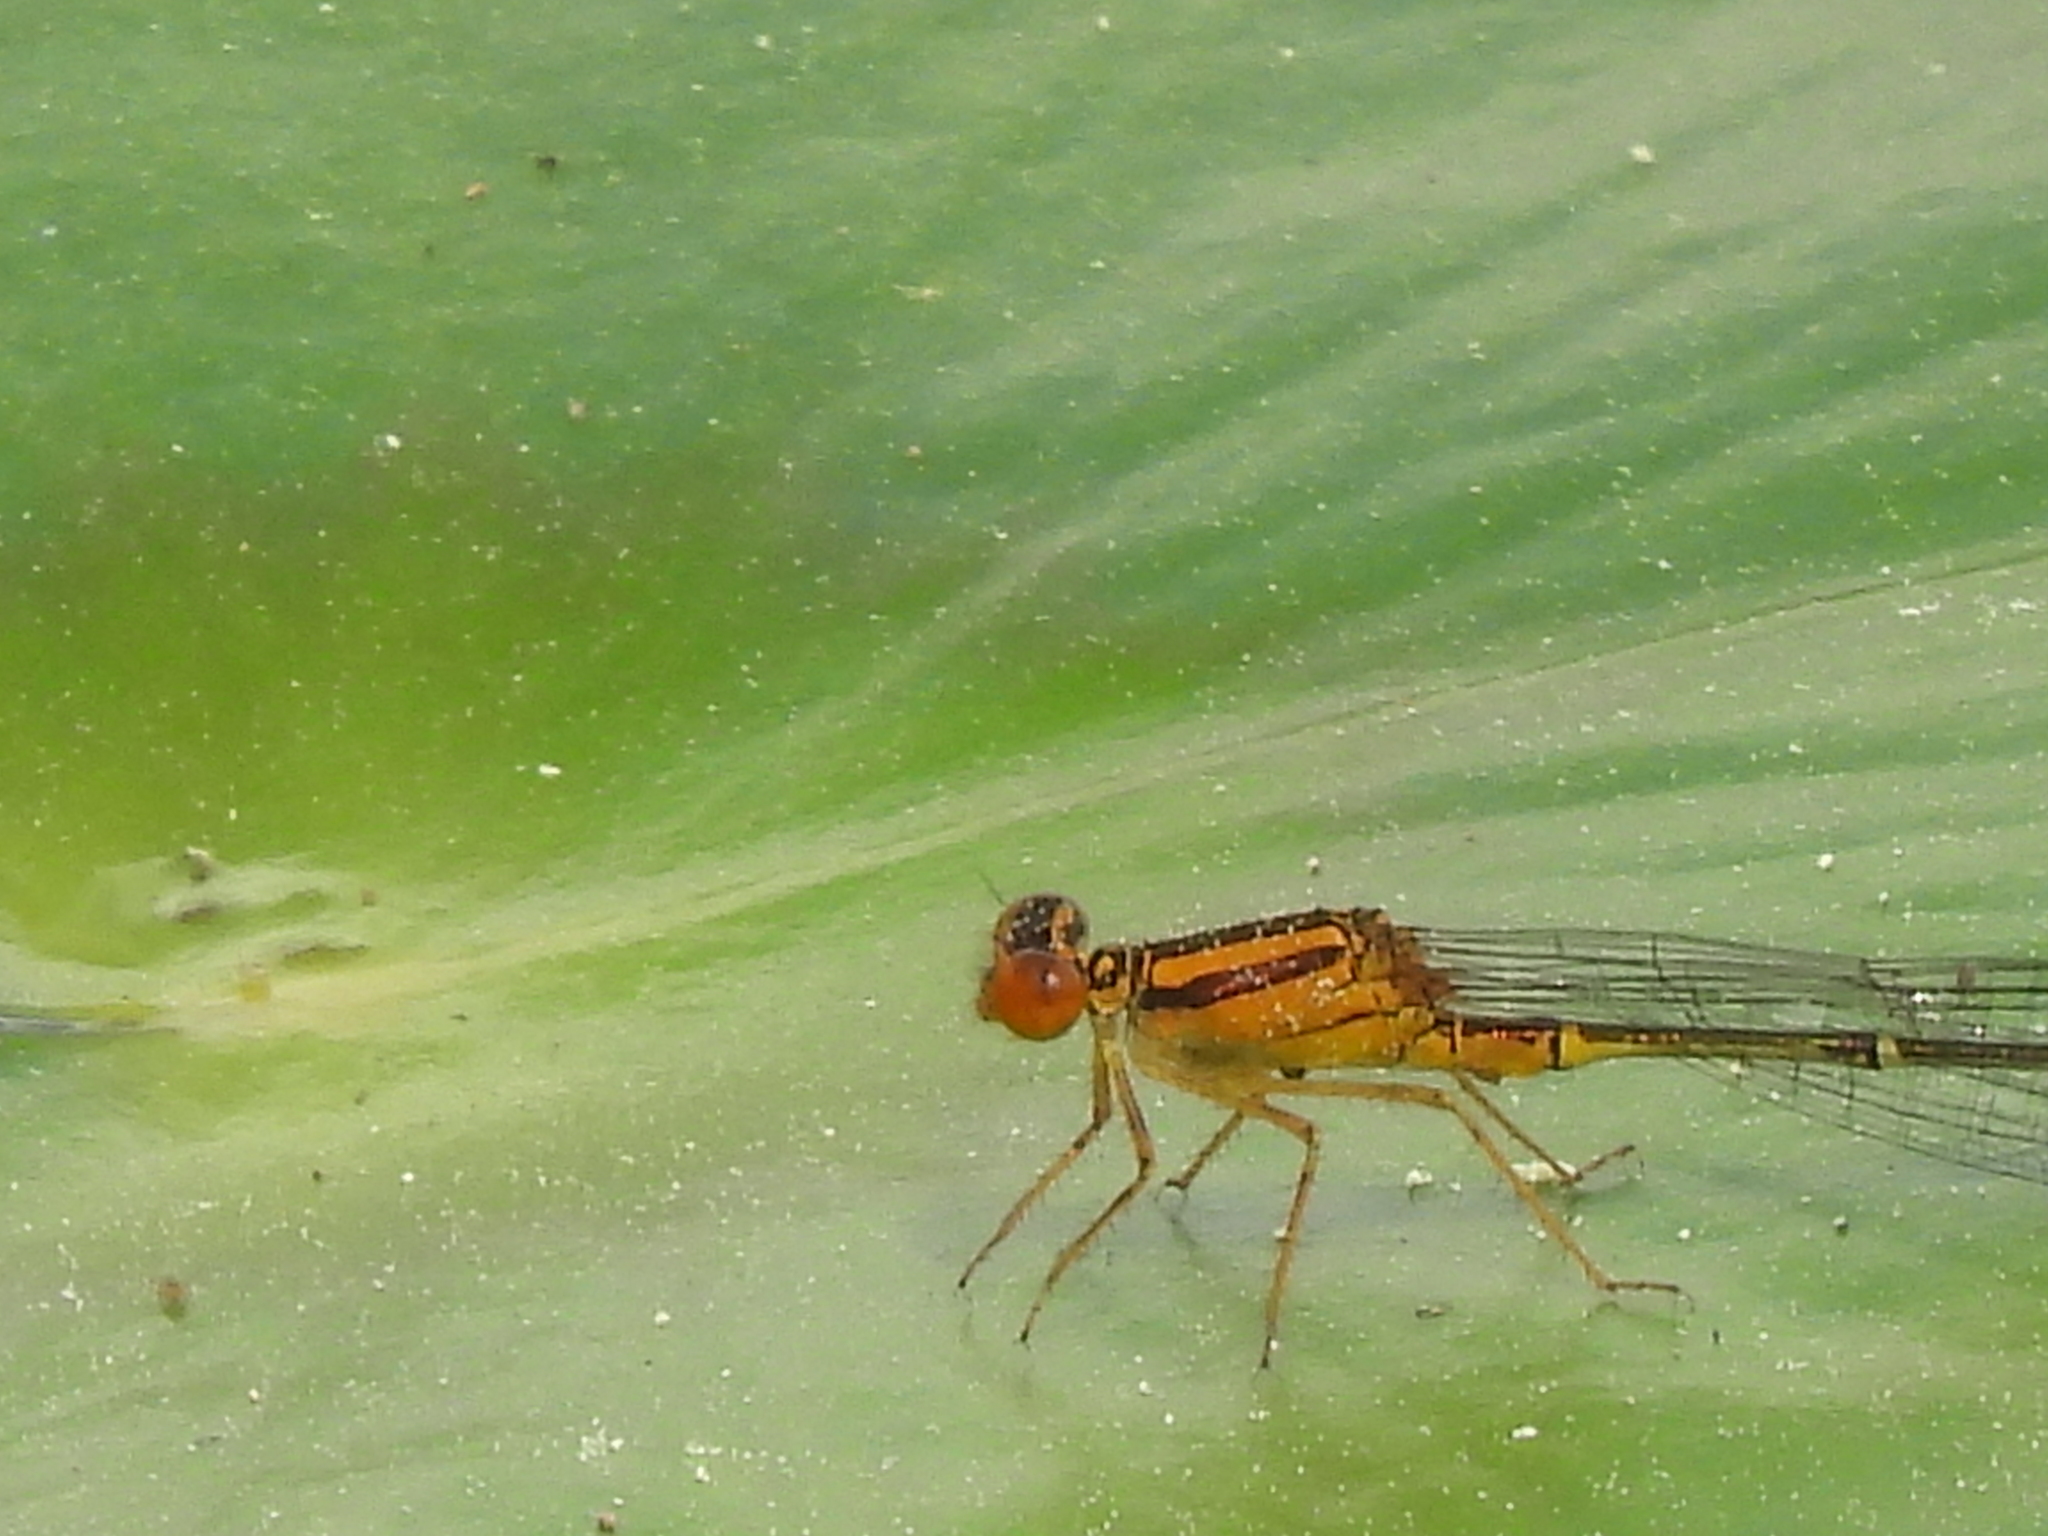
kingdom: Animalia
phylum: Arthropoda
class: Insecta
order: Odonata
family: Coenagrionidae
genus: Enallagma
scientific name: Enallagma signatum
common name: Orange bluet
